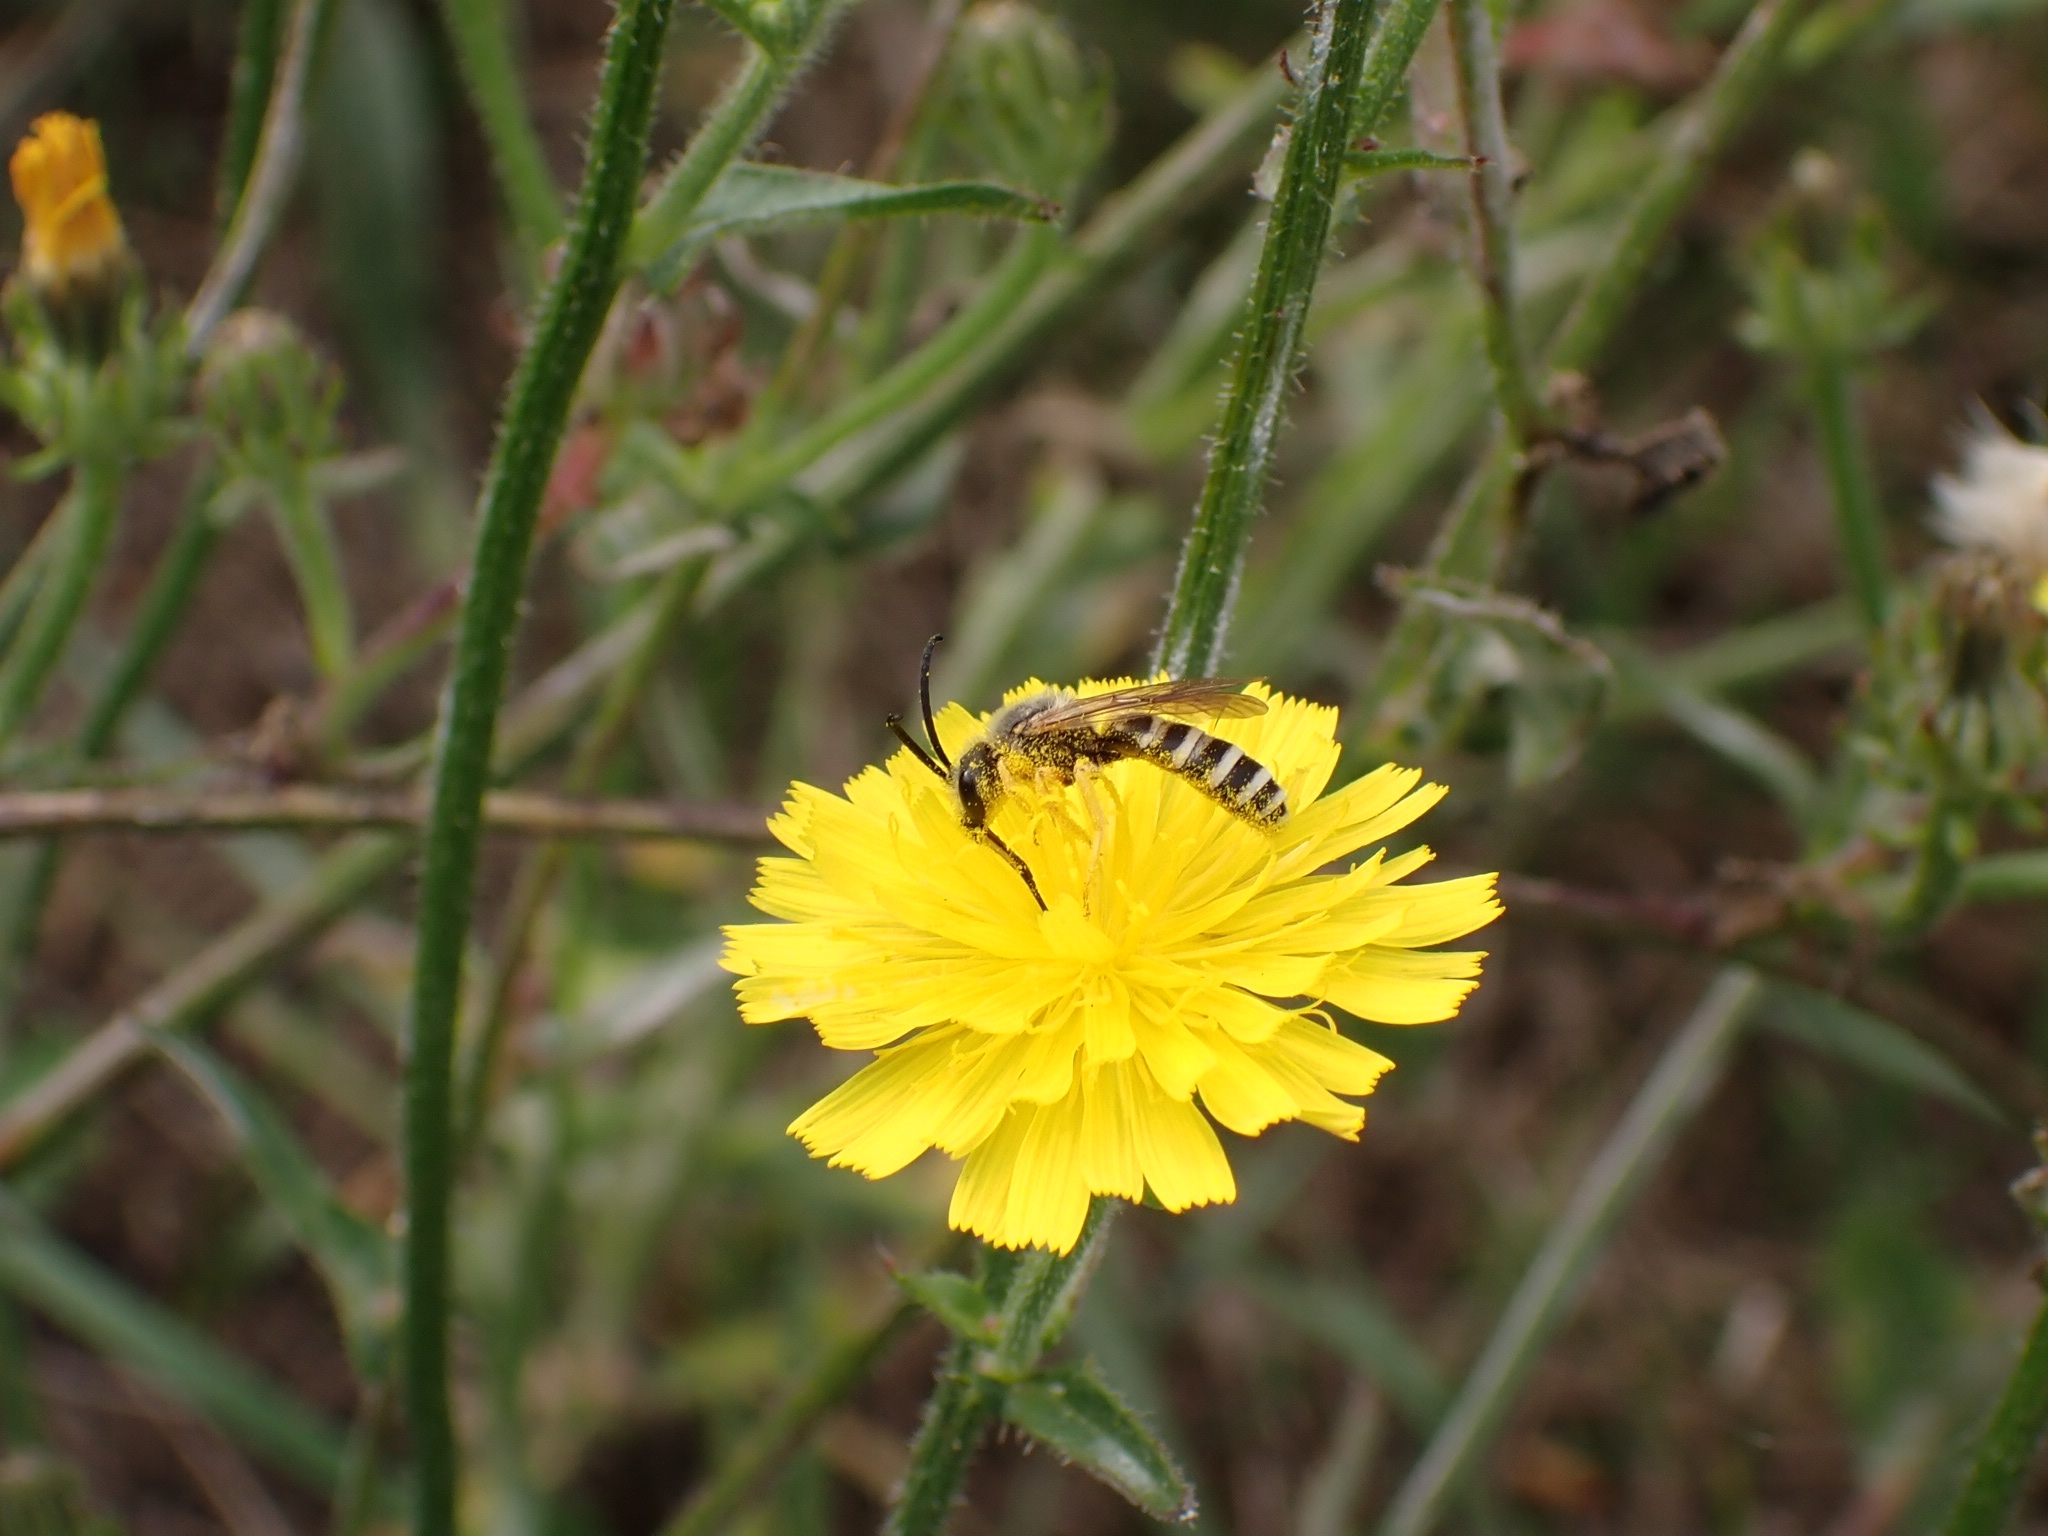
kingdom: Animalia
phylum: Arthropoda
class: Insecta
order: Hymenoptera
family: Halictidae
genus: Halictus
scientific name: Halictus scabiosae
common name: Great banded furrow bee
